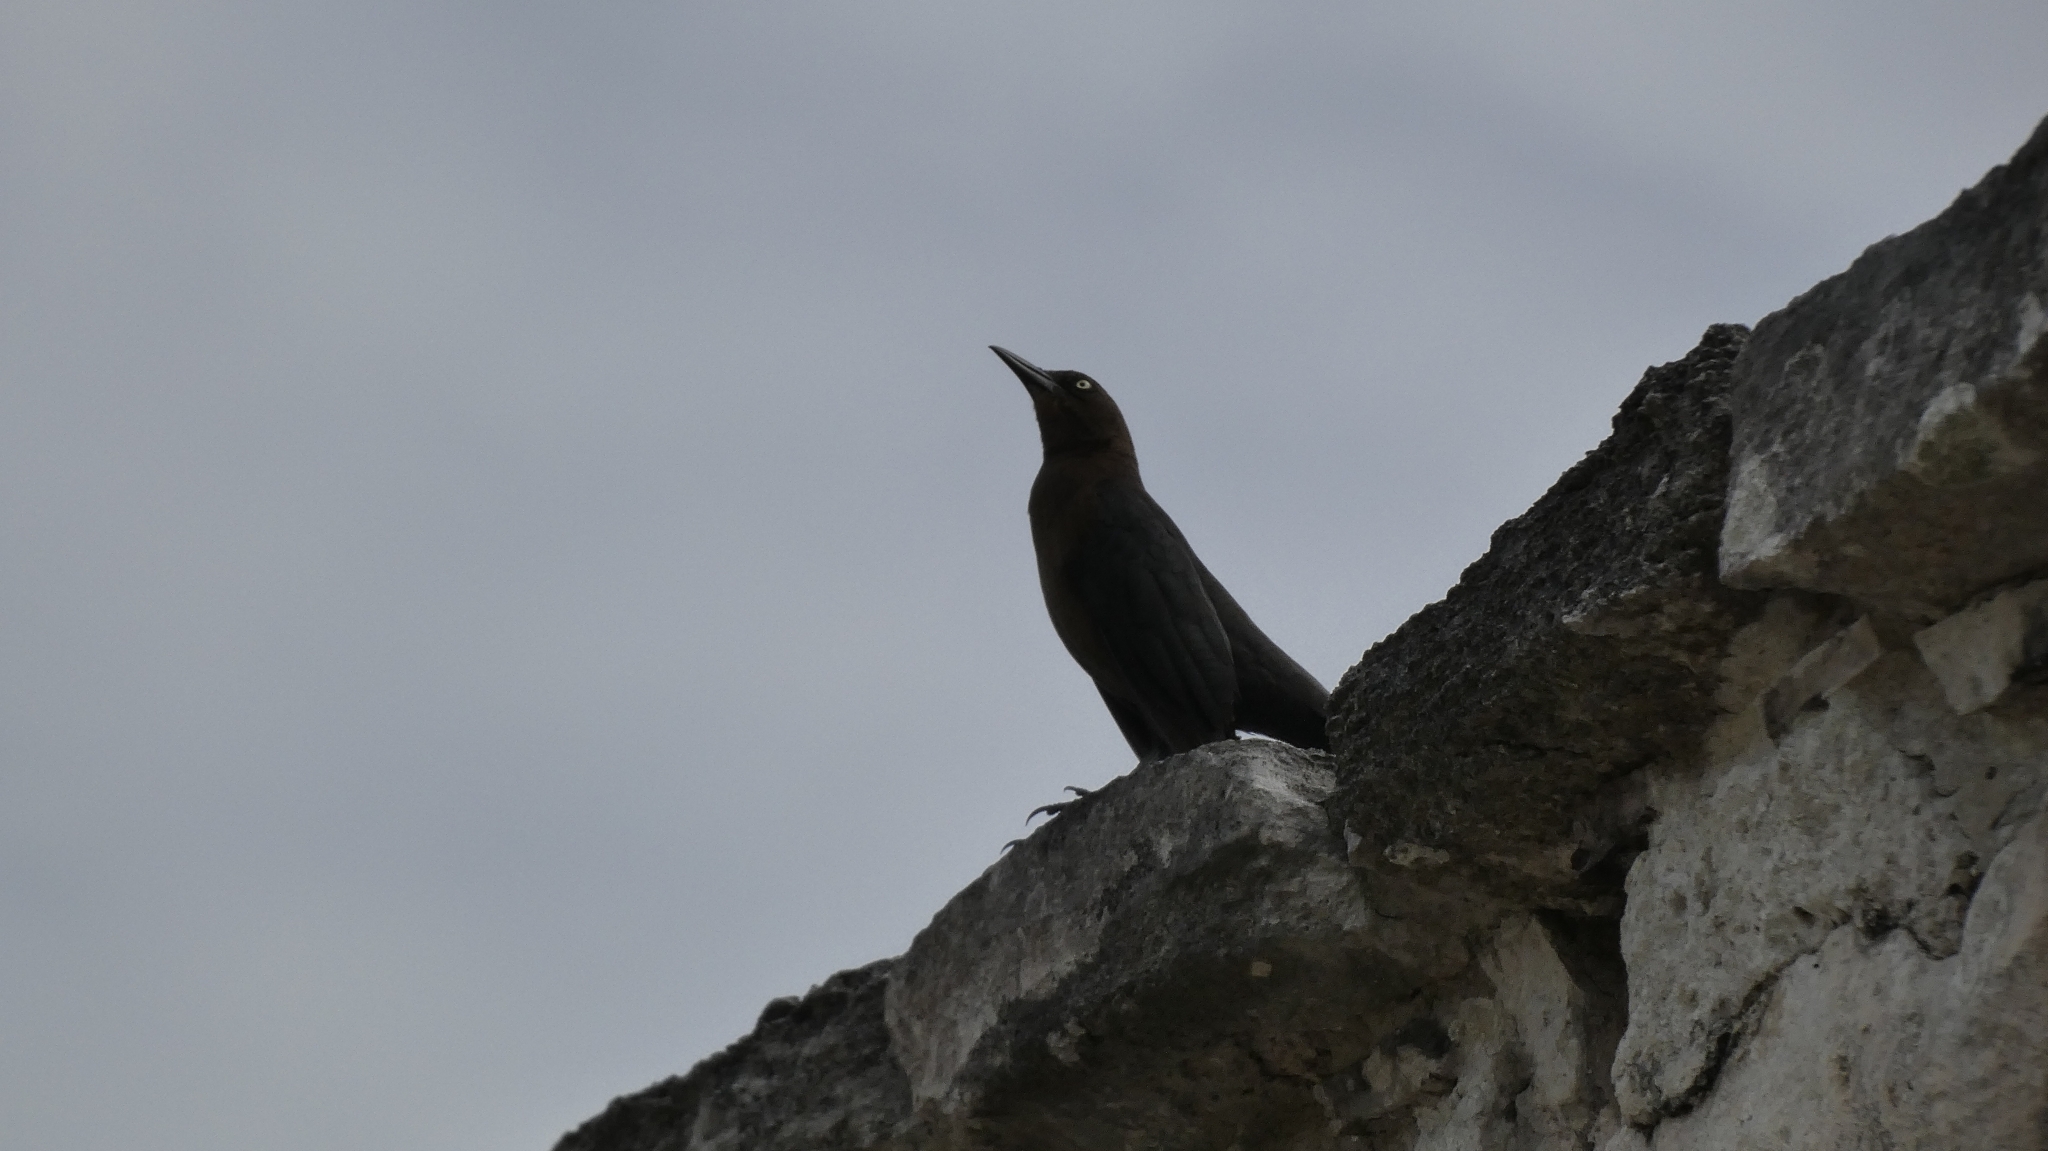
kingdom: Animalia
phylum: Chordata
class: Aves
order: Passeriformes
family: Icteridae
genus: Quiscalus
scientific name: Quiscalus mexicanus
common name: Great-tailed grackle
